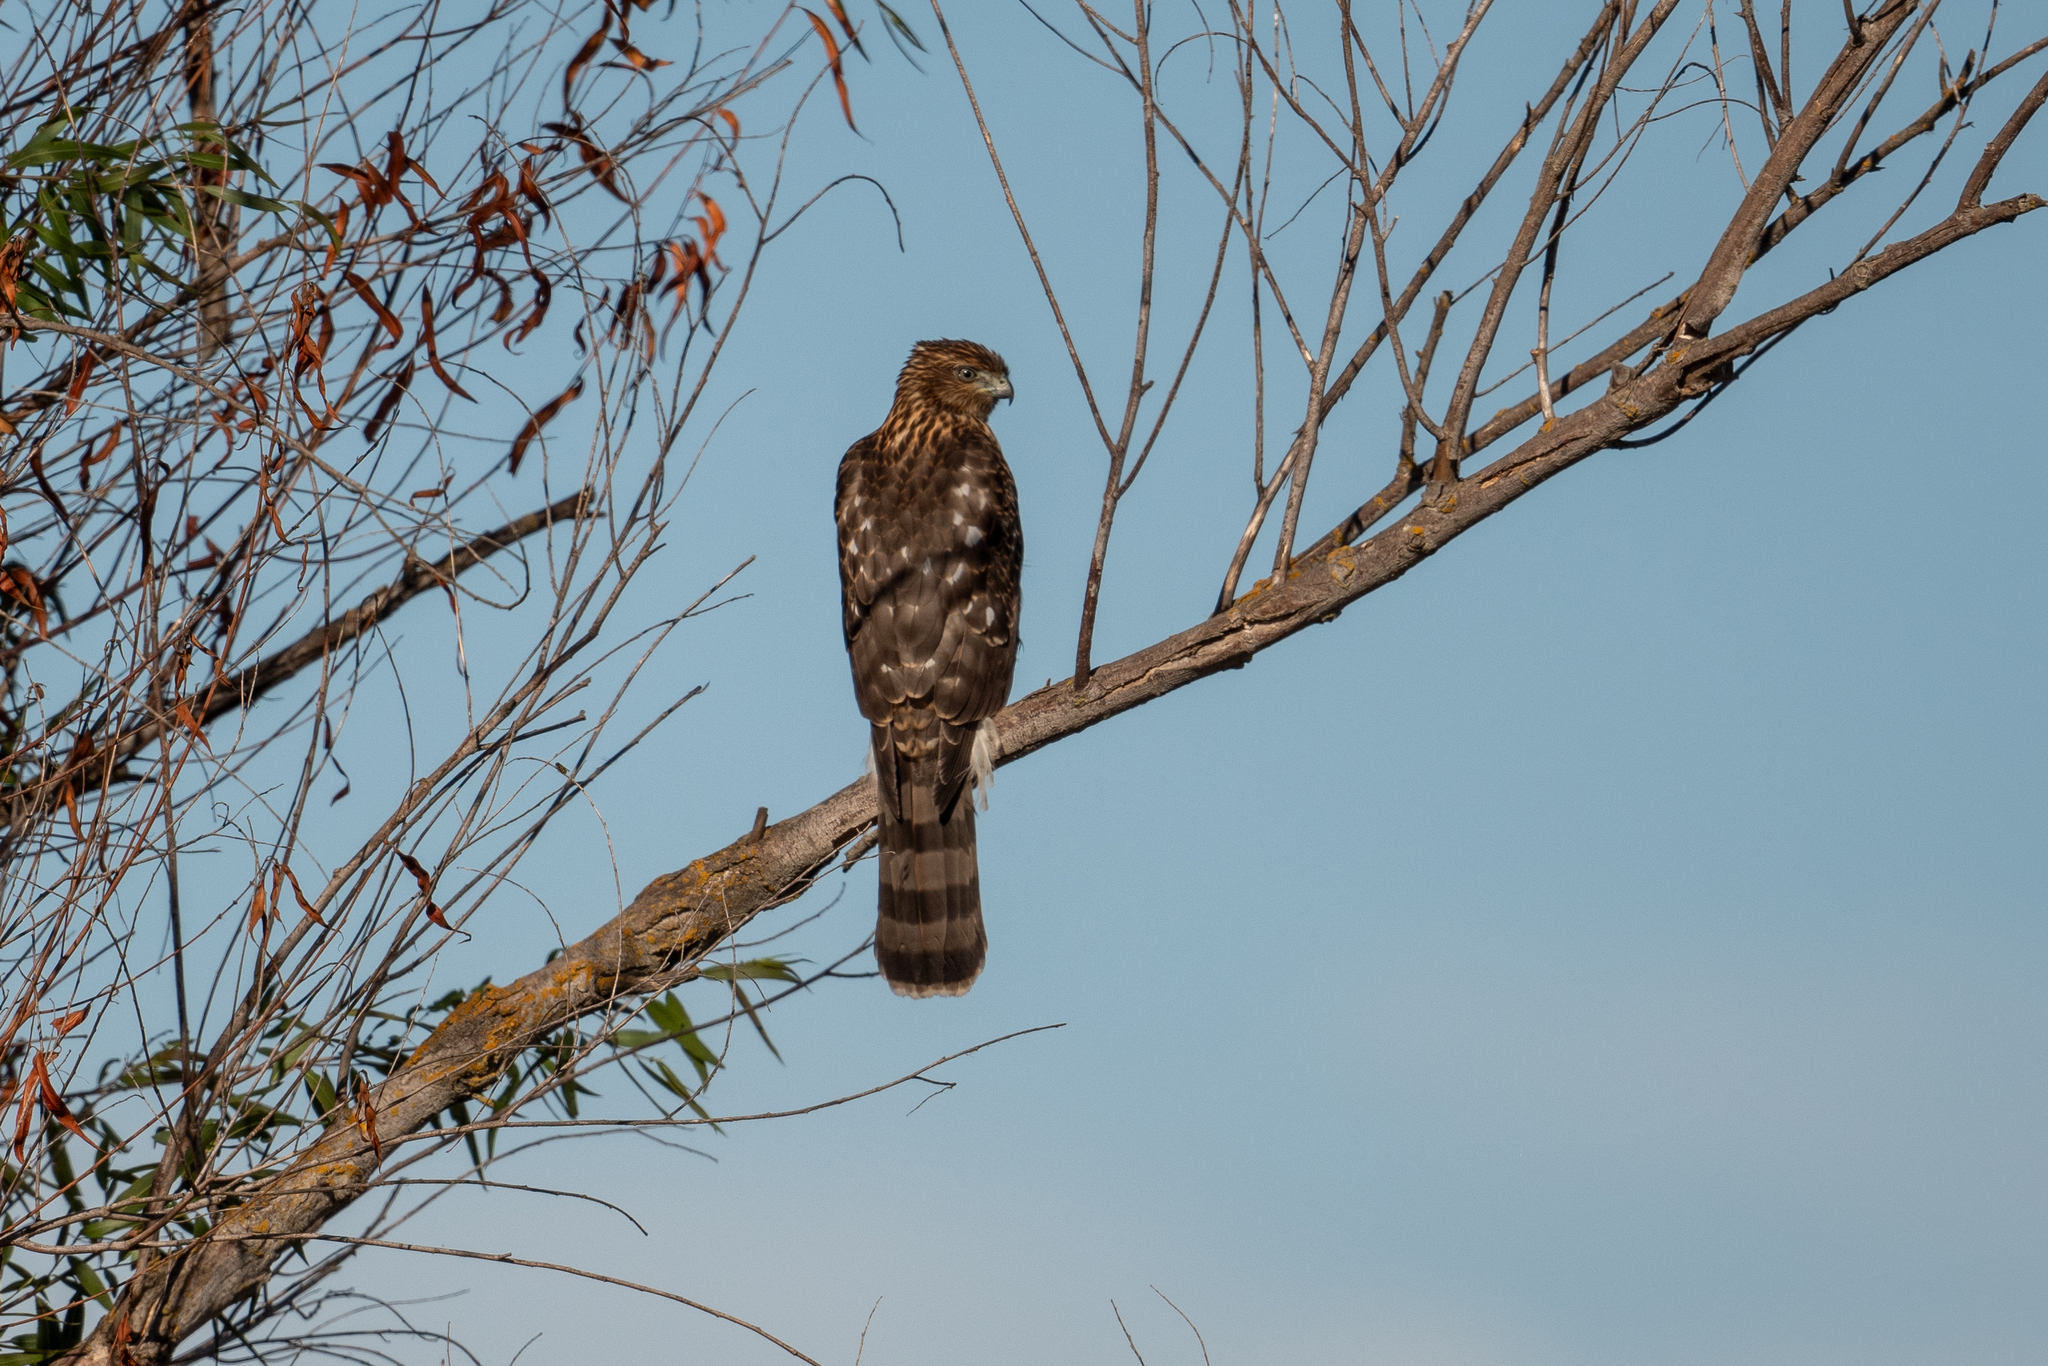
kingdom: Animalia
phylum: Chordata
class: Aves
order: Accipitriformes
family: Accipitridae
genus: Accipiter
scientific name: Accipiter cooperii
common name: Cooper's hawk
